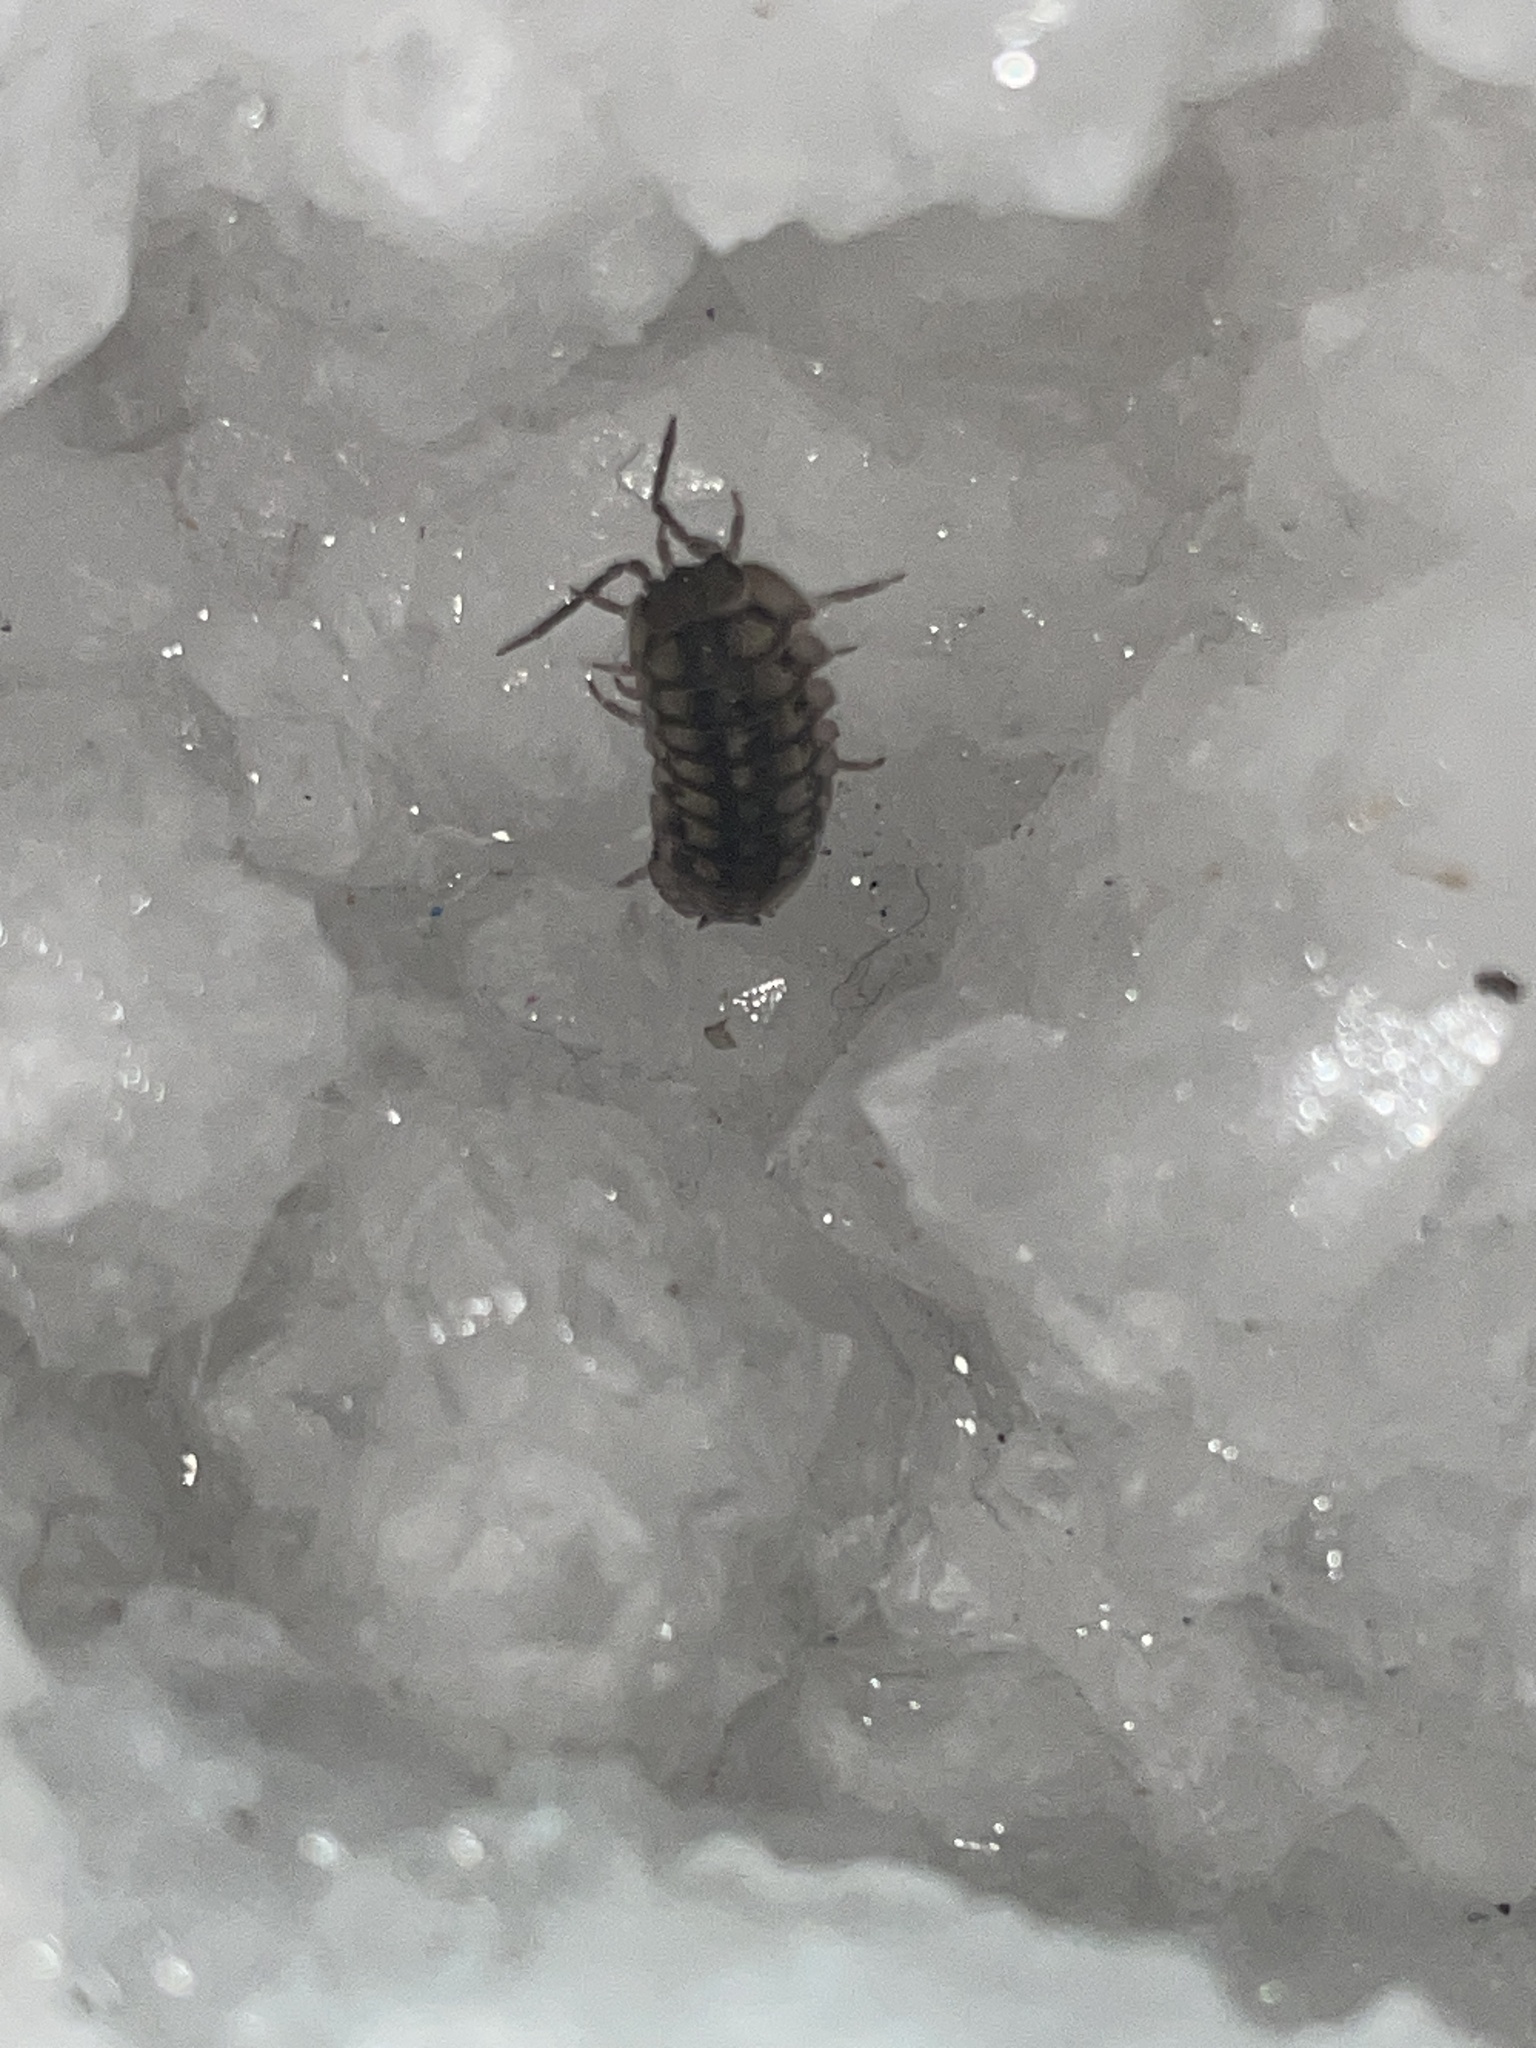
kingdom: Animalia
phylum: Arthropoda
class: Malacostraca
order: Isopoda
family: Armadillidiidae
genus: Armadillidium
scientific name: Armadillidium nasatum
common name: Isopod
